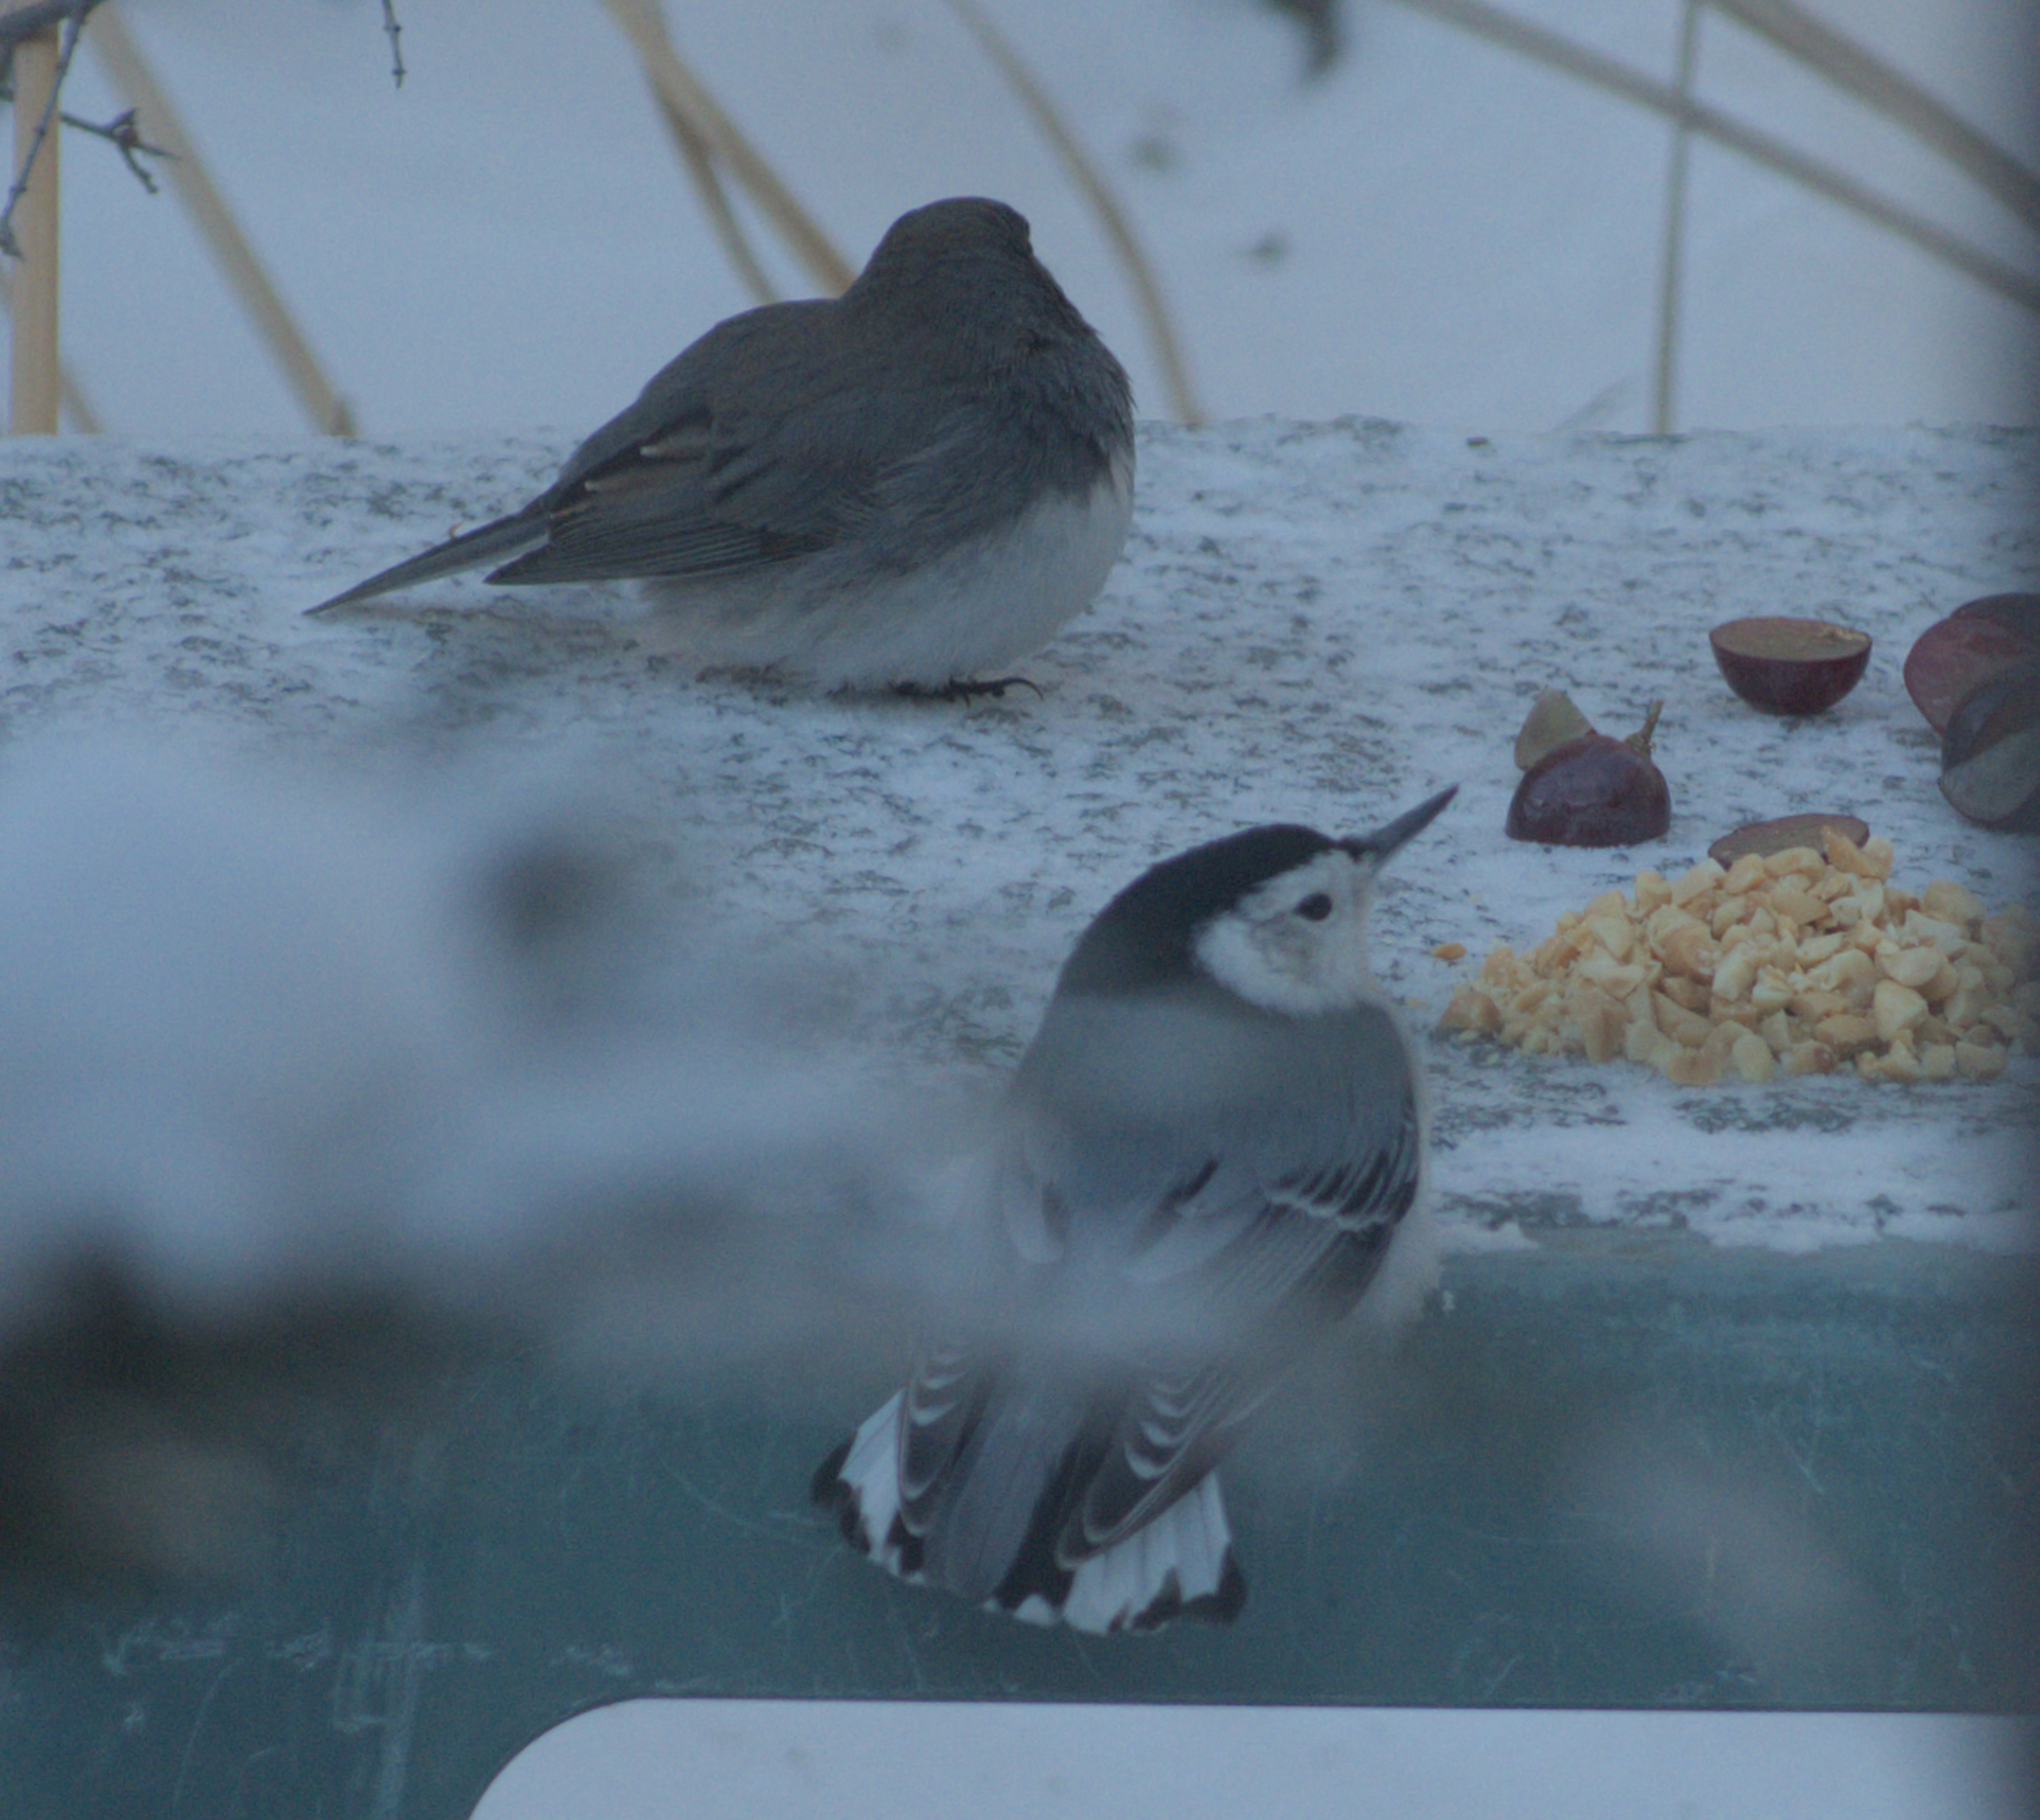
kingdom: Animalia
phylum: Chordata
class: Aves
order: Passeriformes
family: Sittidae
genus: Sitta
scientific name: Sitta carolinensis
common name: White-breasted nuthatch
